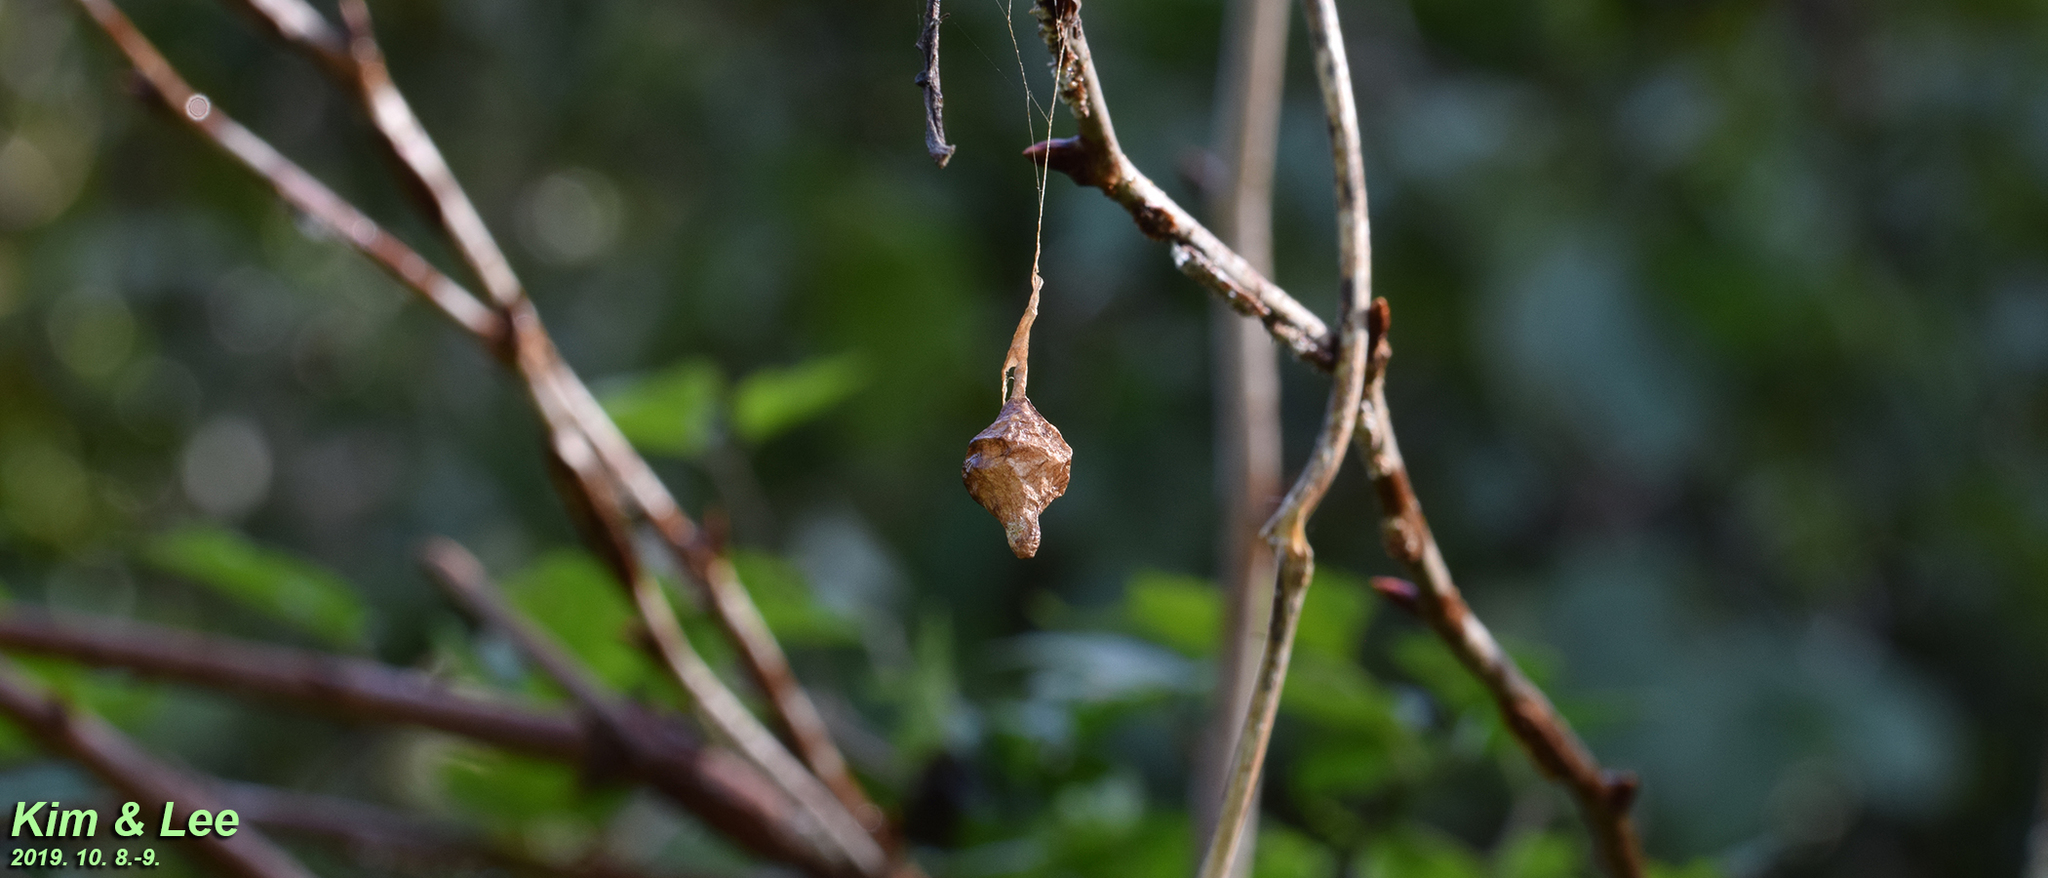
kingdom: Animalia
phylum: Arthropoda
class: Arachnida
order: Araneae
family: Araneidae
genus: Cyrtarachne
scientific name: Cyrtarachne inaequalis
